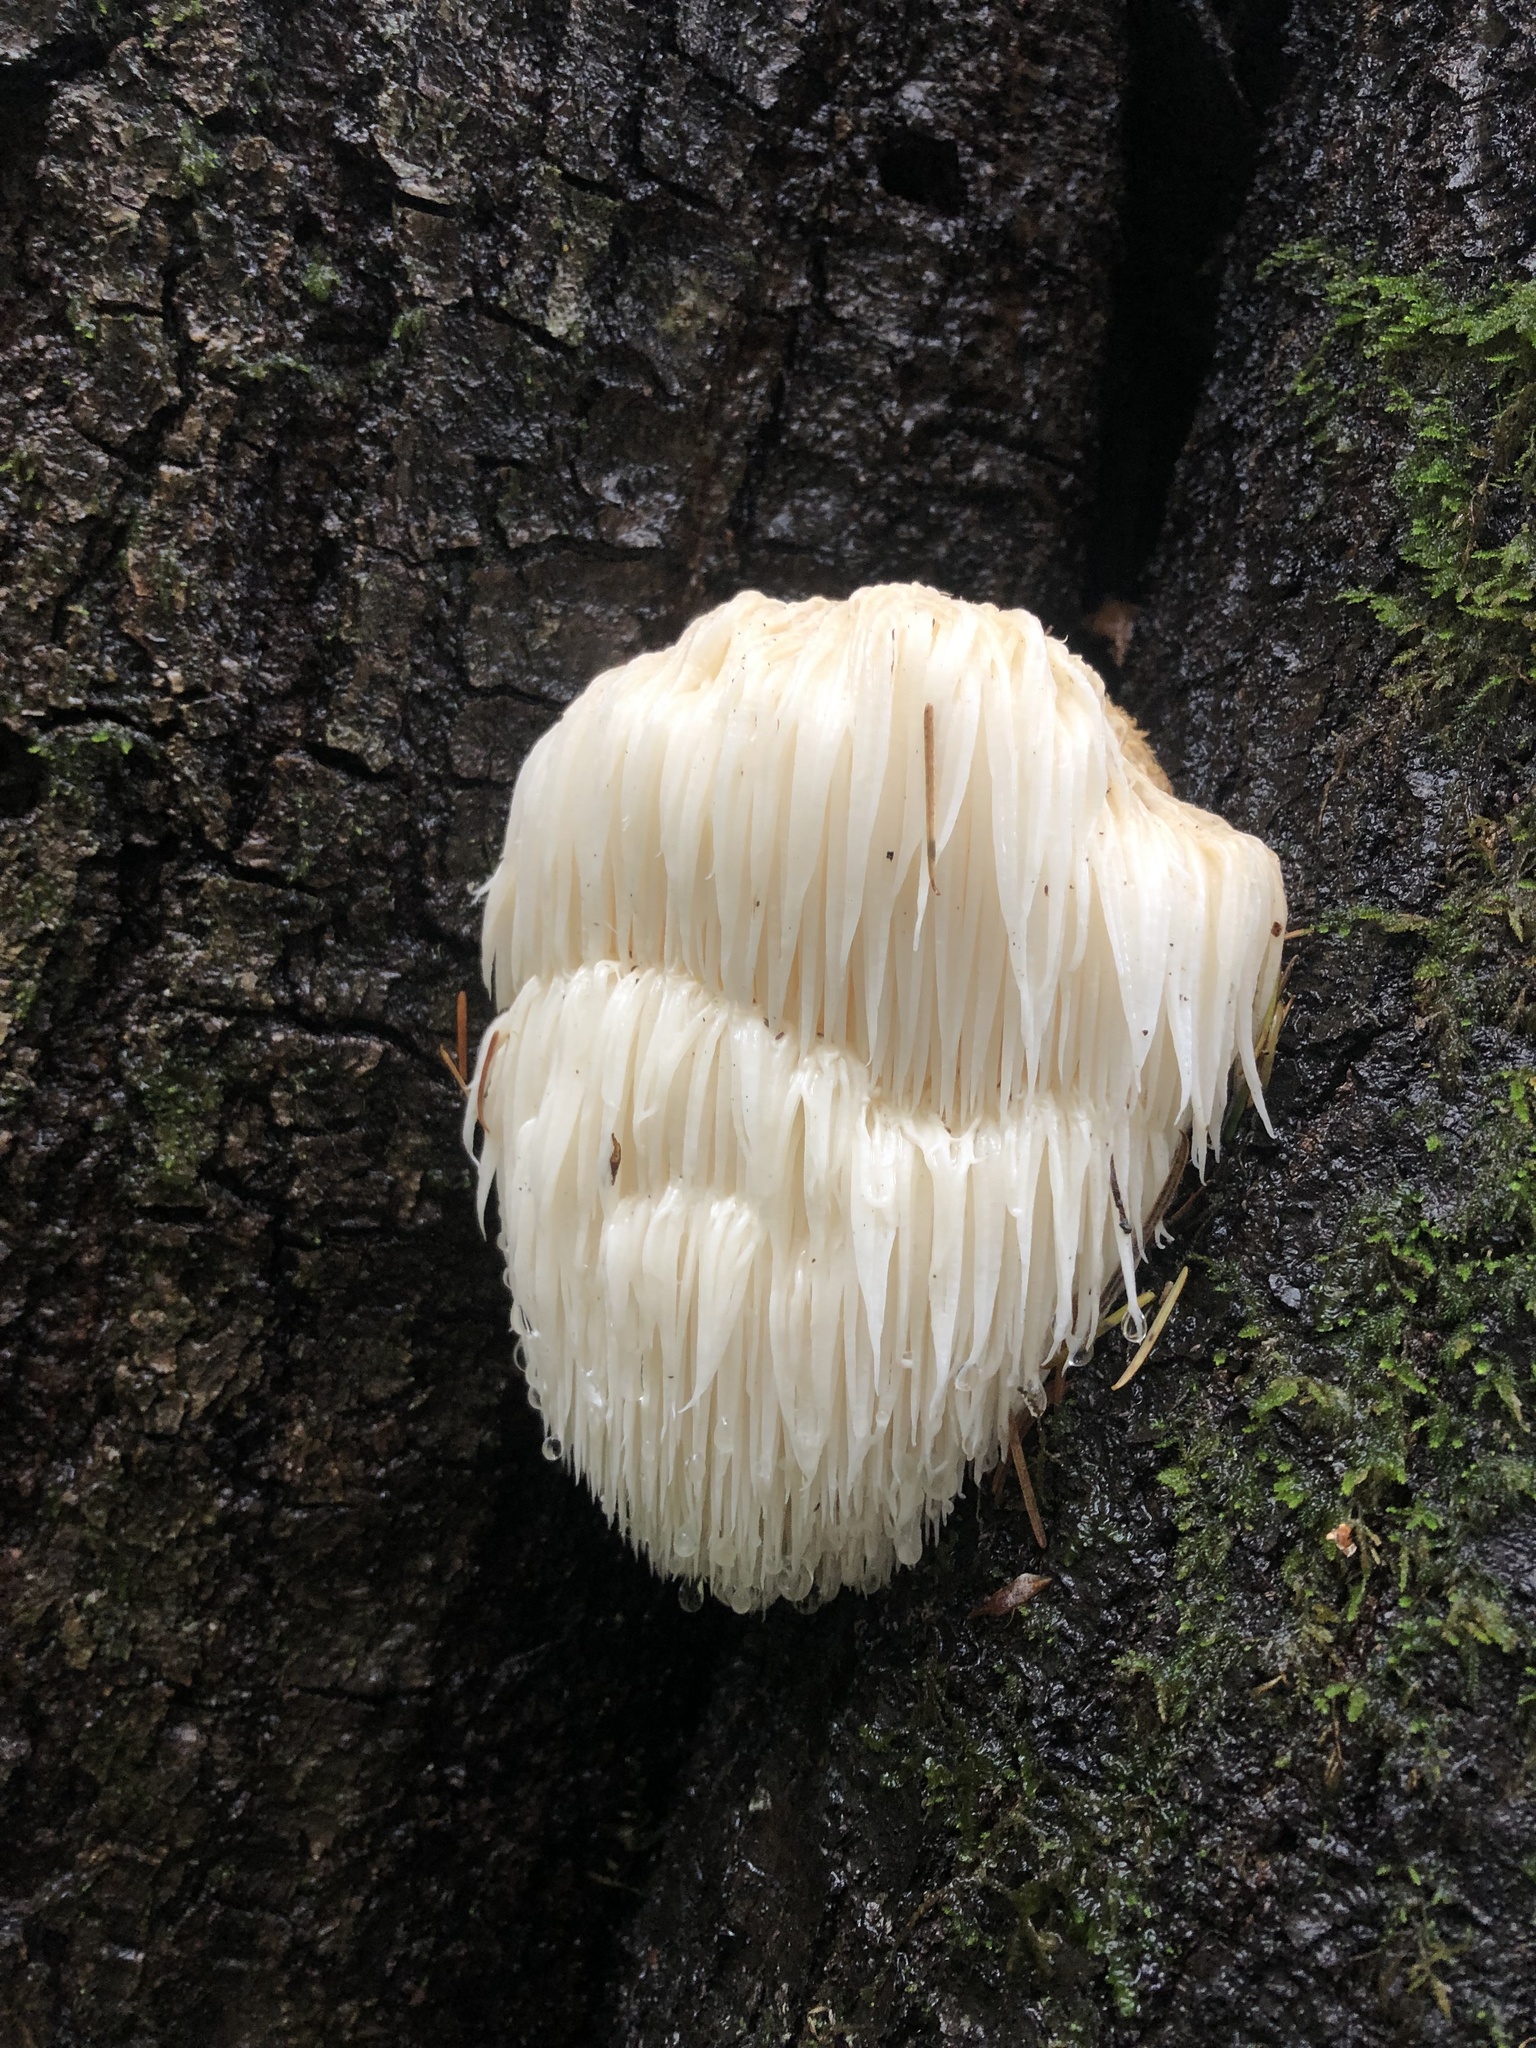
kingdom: Fungi
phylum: Basidiomycota
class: Agaricomycetes
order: Russulales
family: Hericiaceae
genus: Hericium
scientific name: Hericium erinaceus
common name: Bearded tooth
